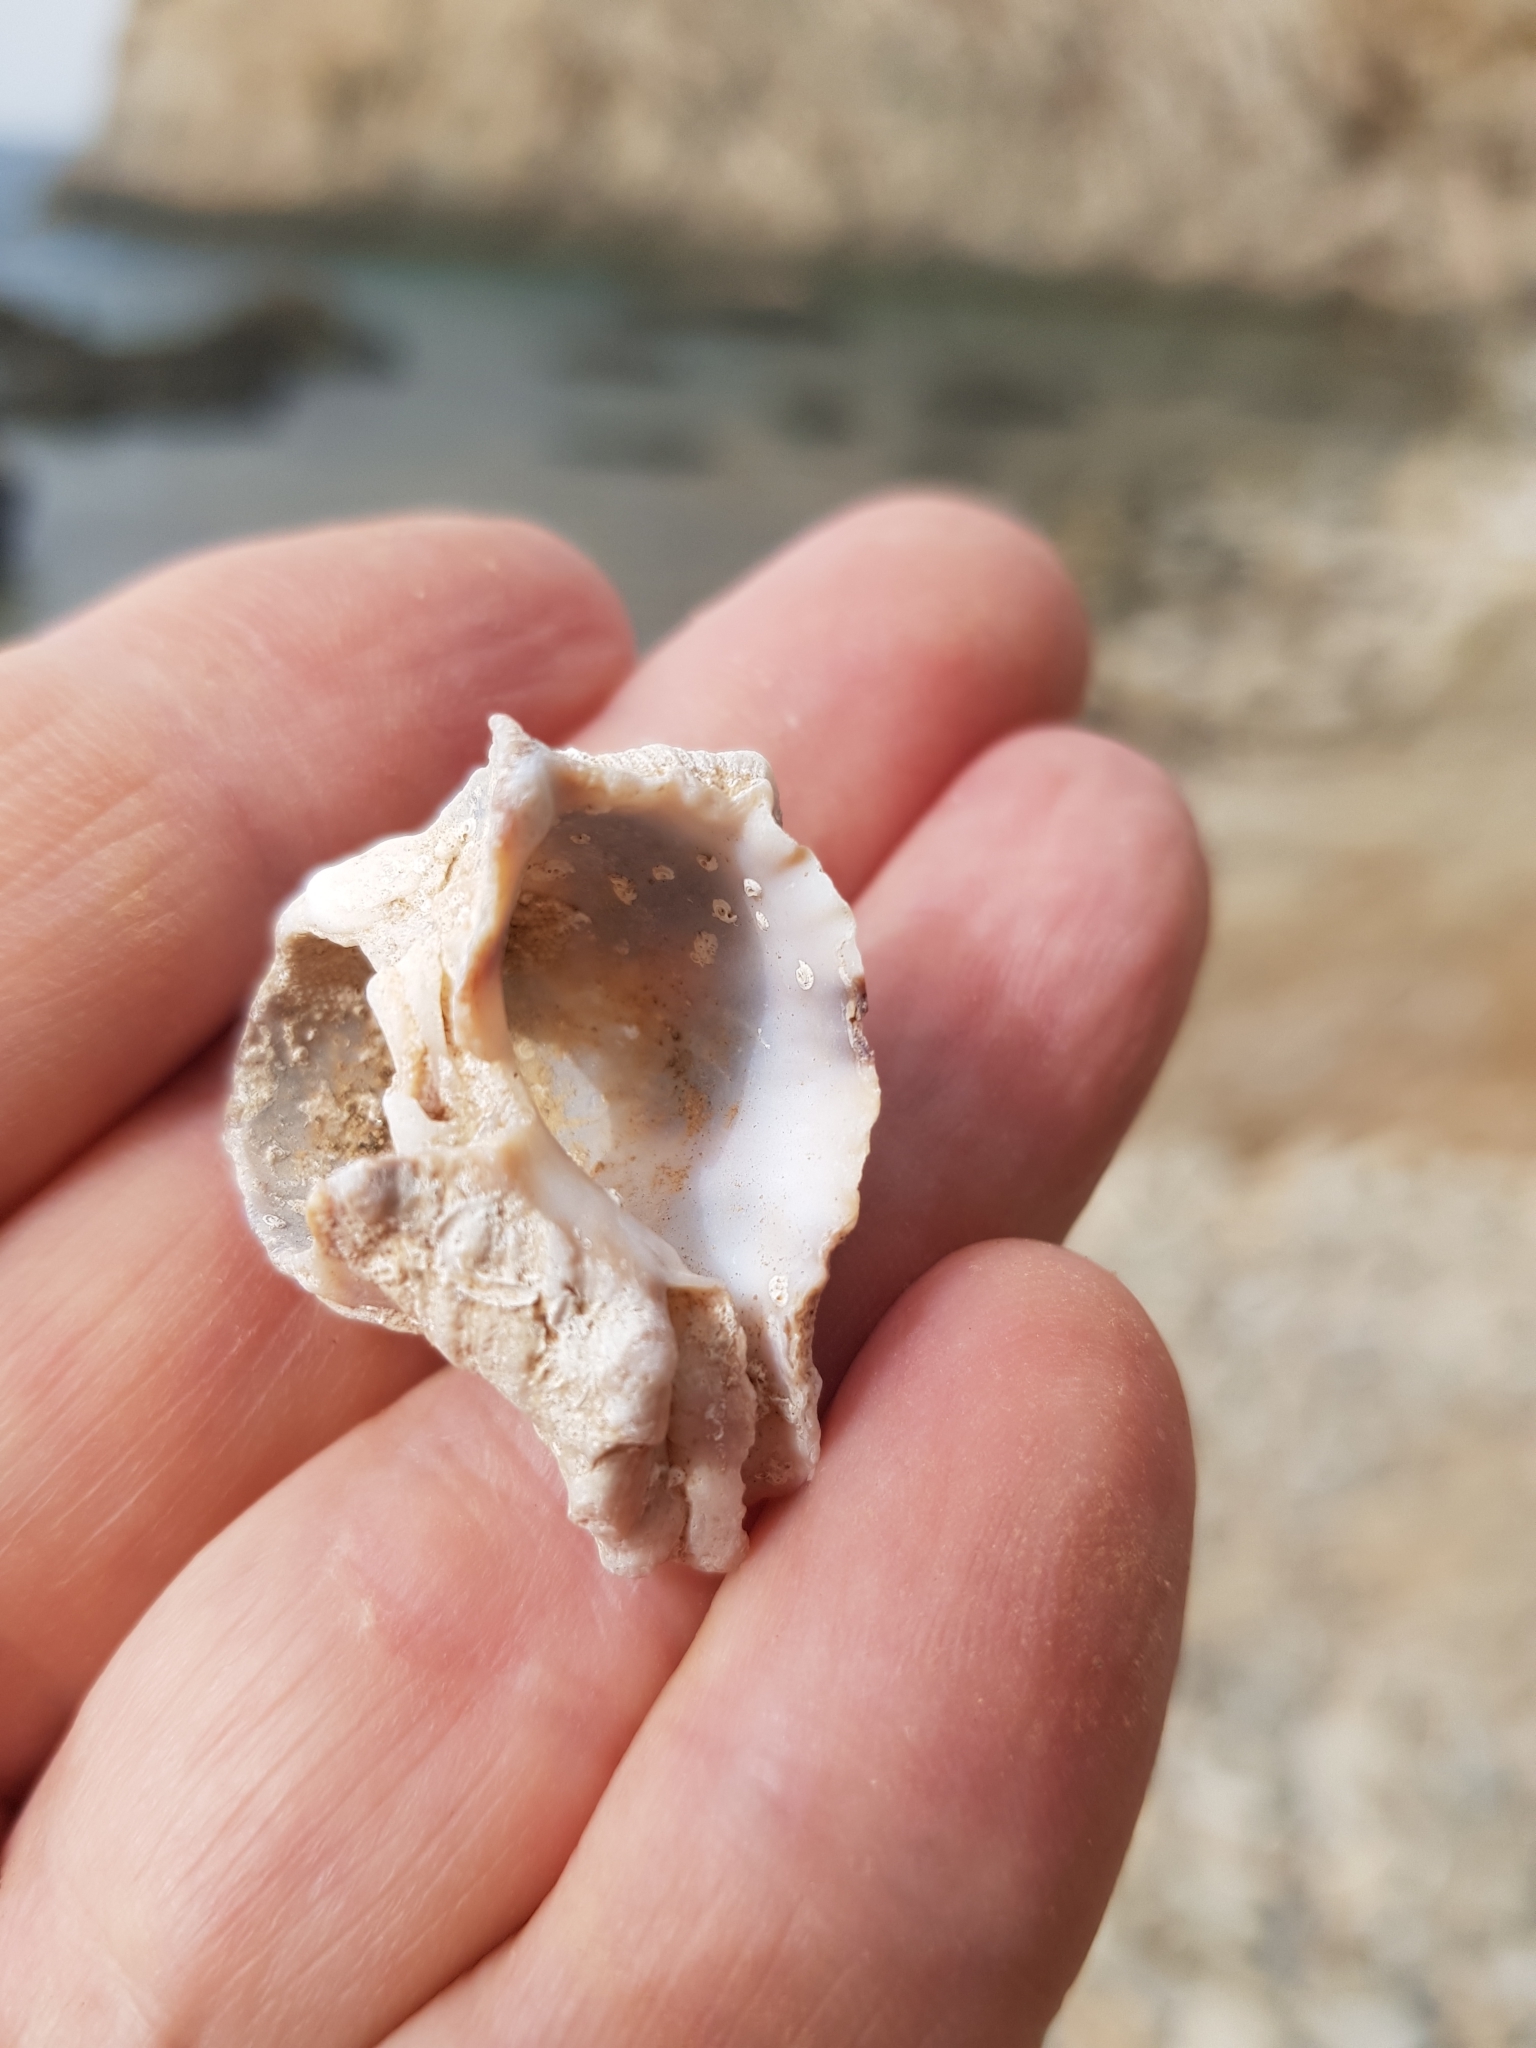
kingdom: Animalia
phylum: Mollusca
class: Gastropoda
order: Neogastropoda
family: Muricidae
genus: Hexaplex
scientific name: Hexaplex trunculus
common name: Banded dye-murex
